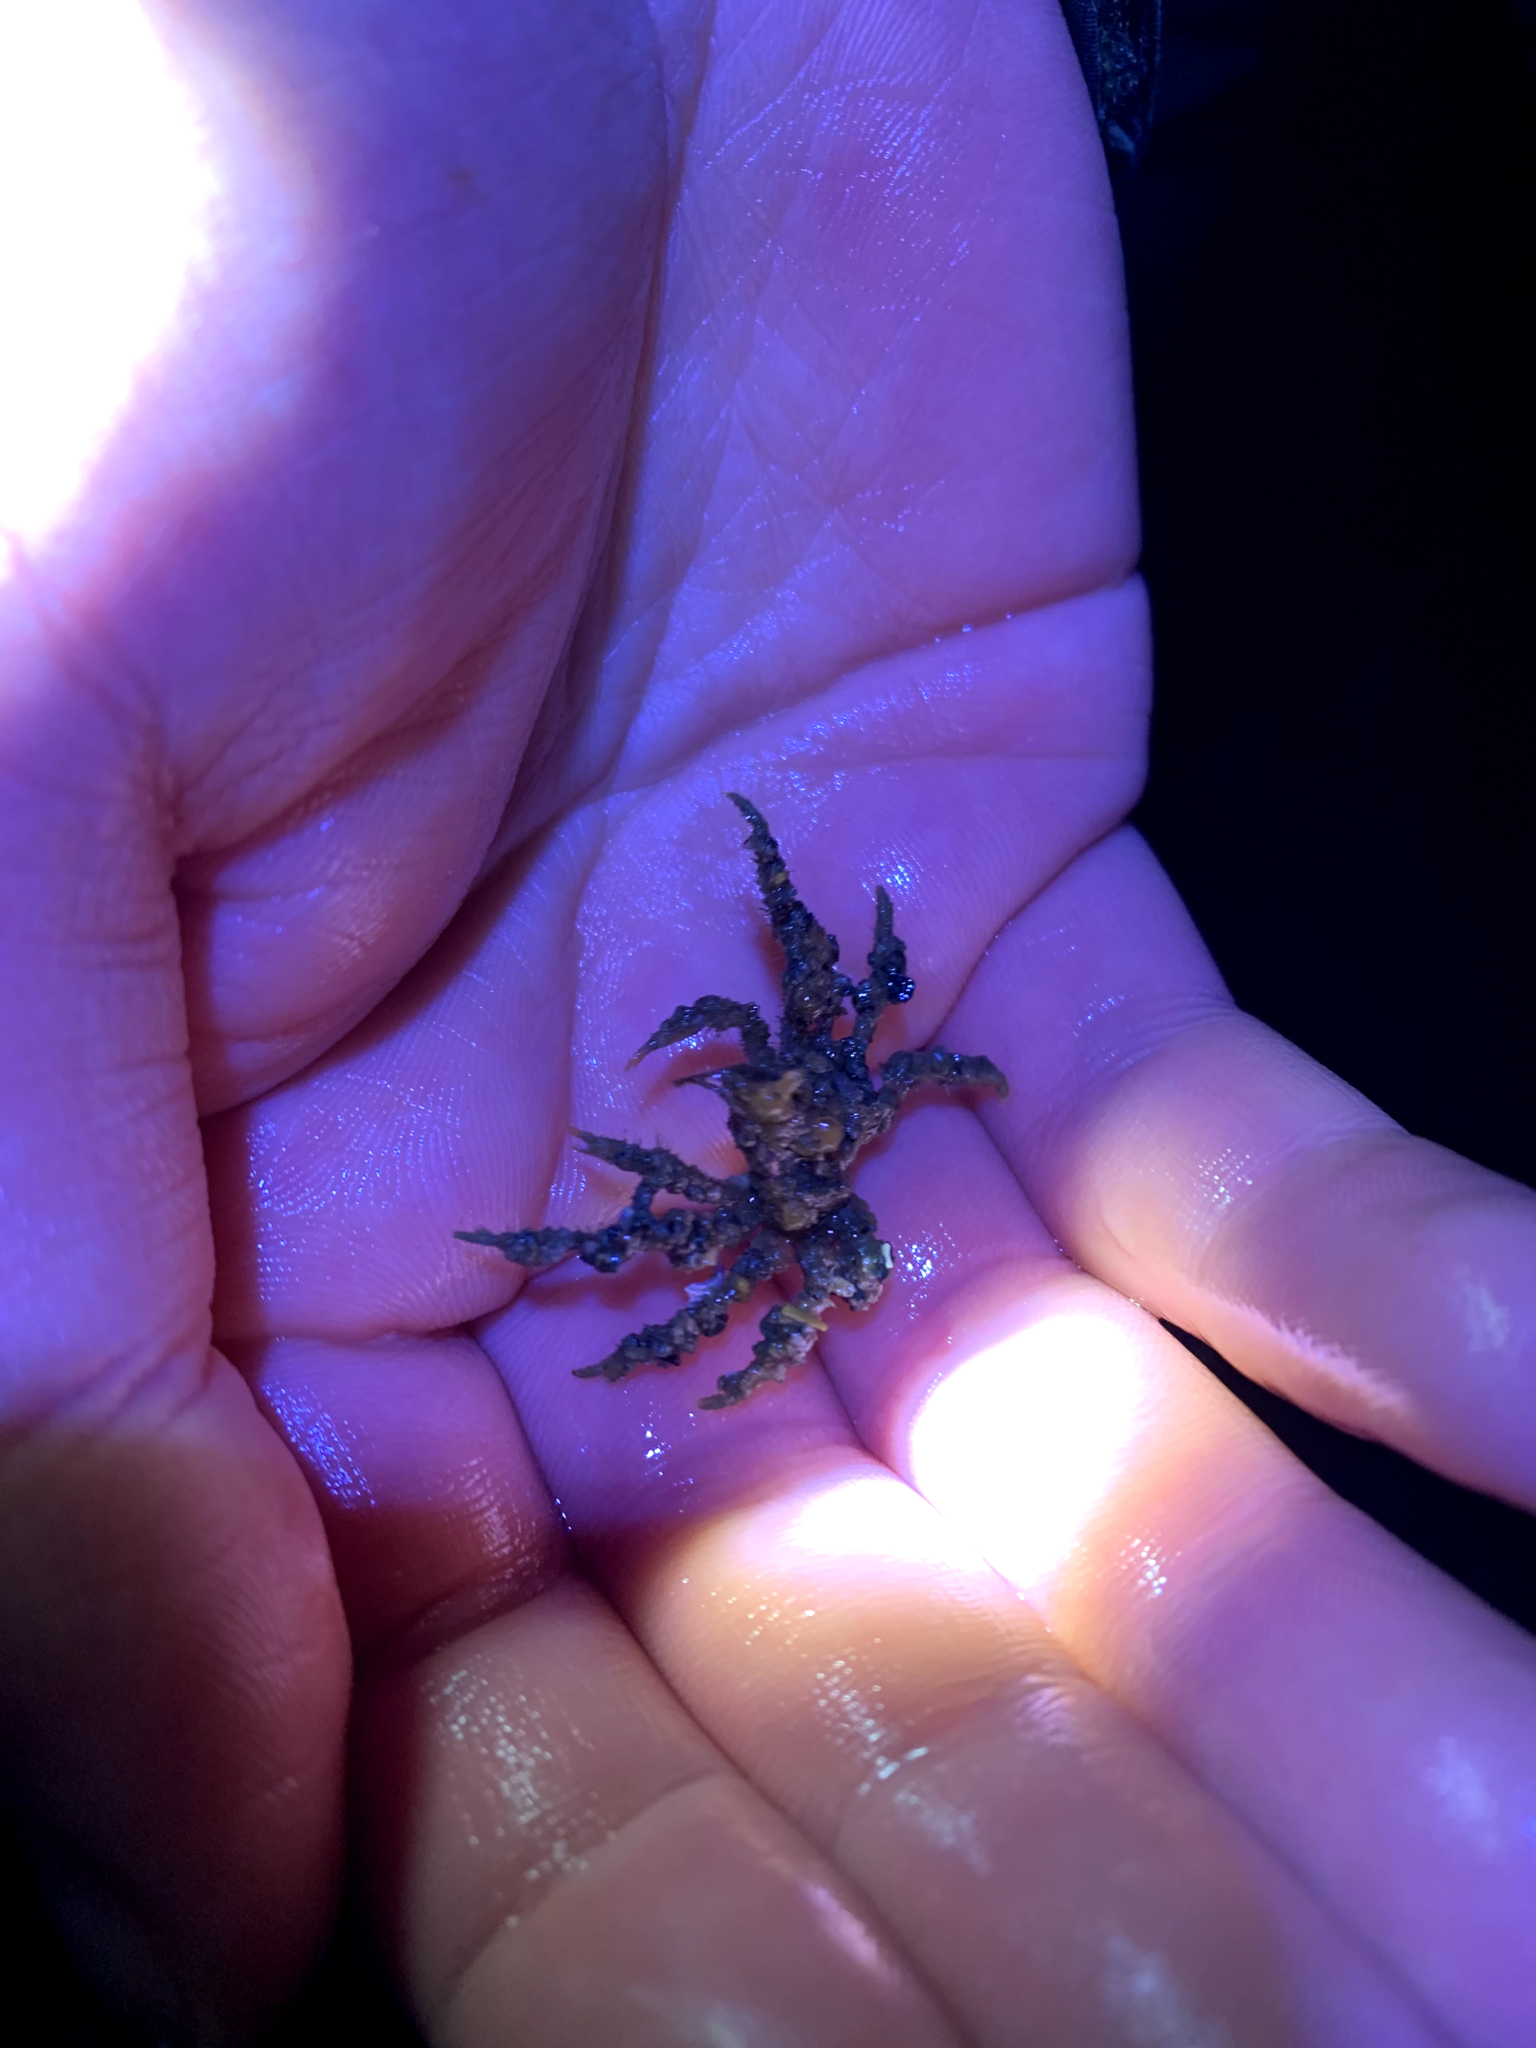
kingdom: Animalia
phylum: Arthropoda
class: Malacostraca
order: Decapoda
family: Oregoniidae
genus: Oregonia
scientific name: Oregonia gracilis
